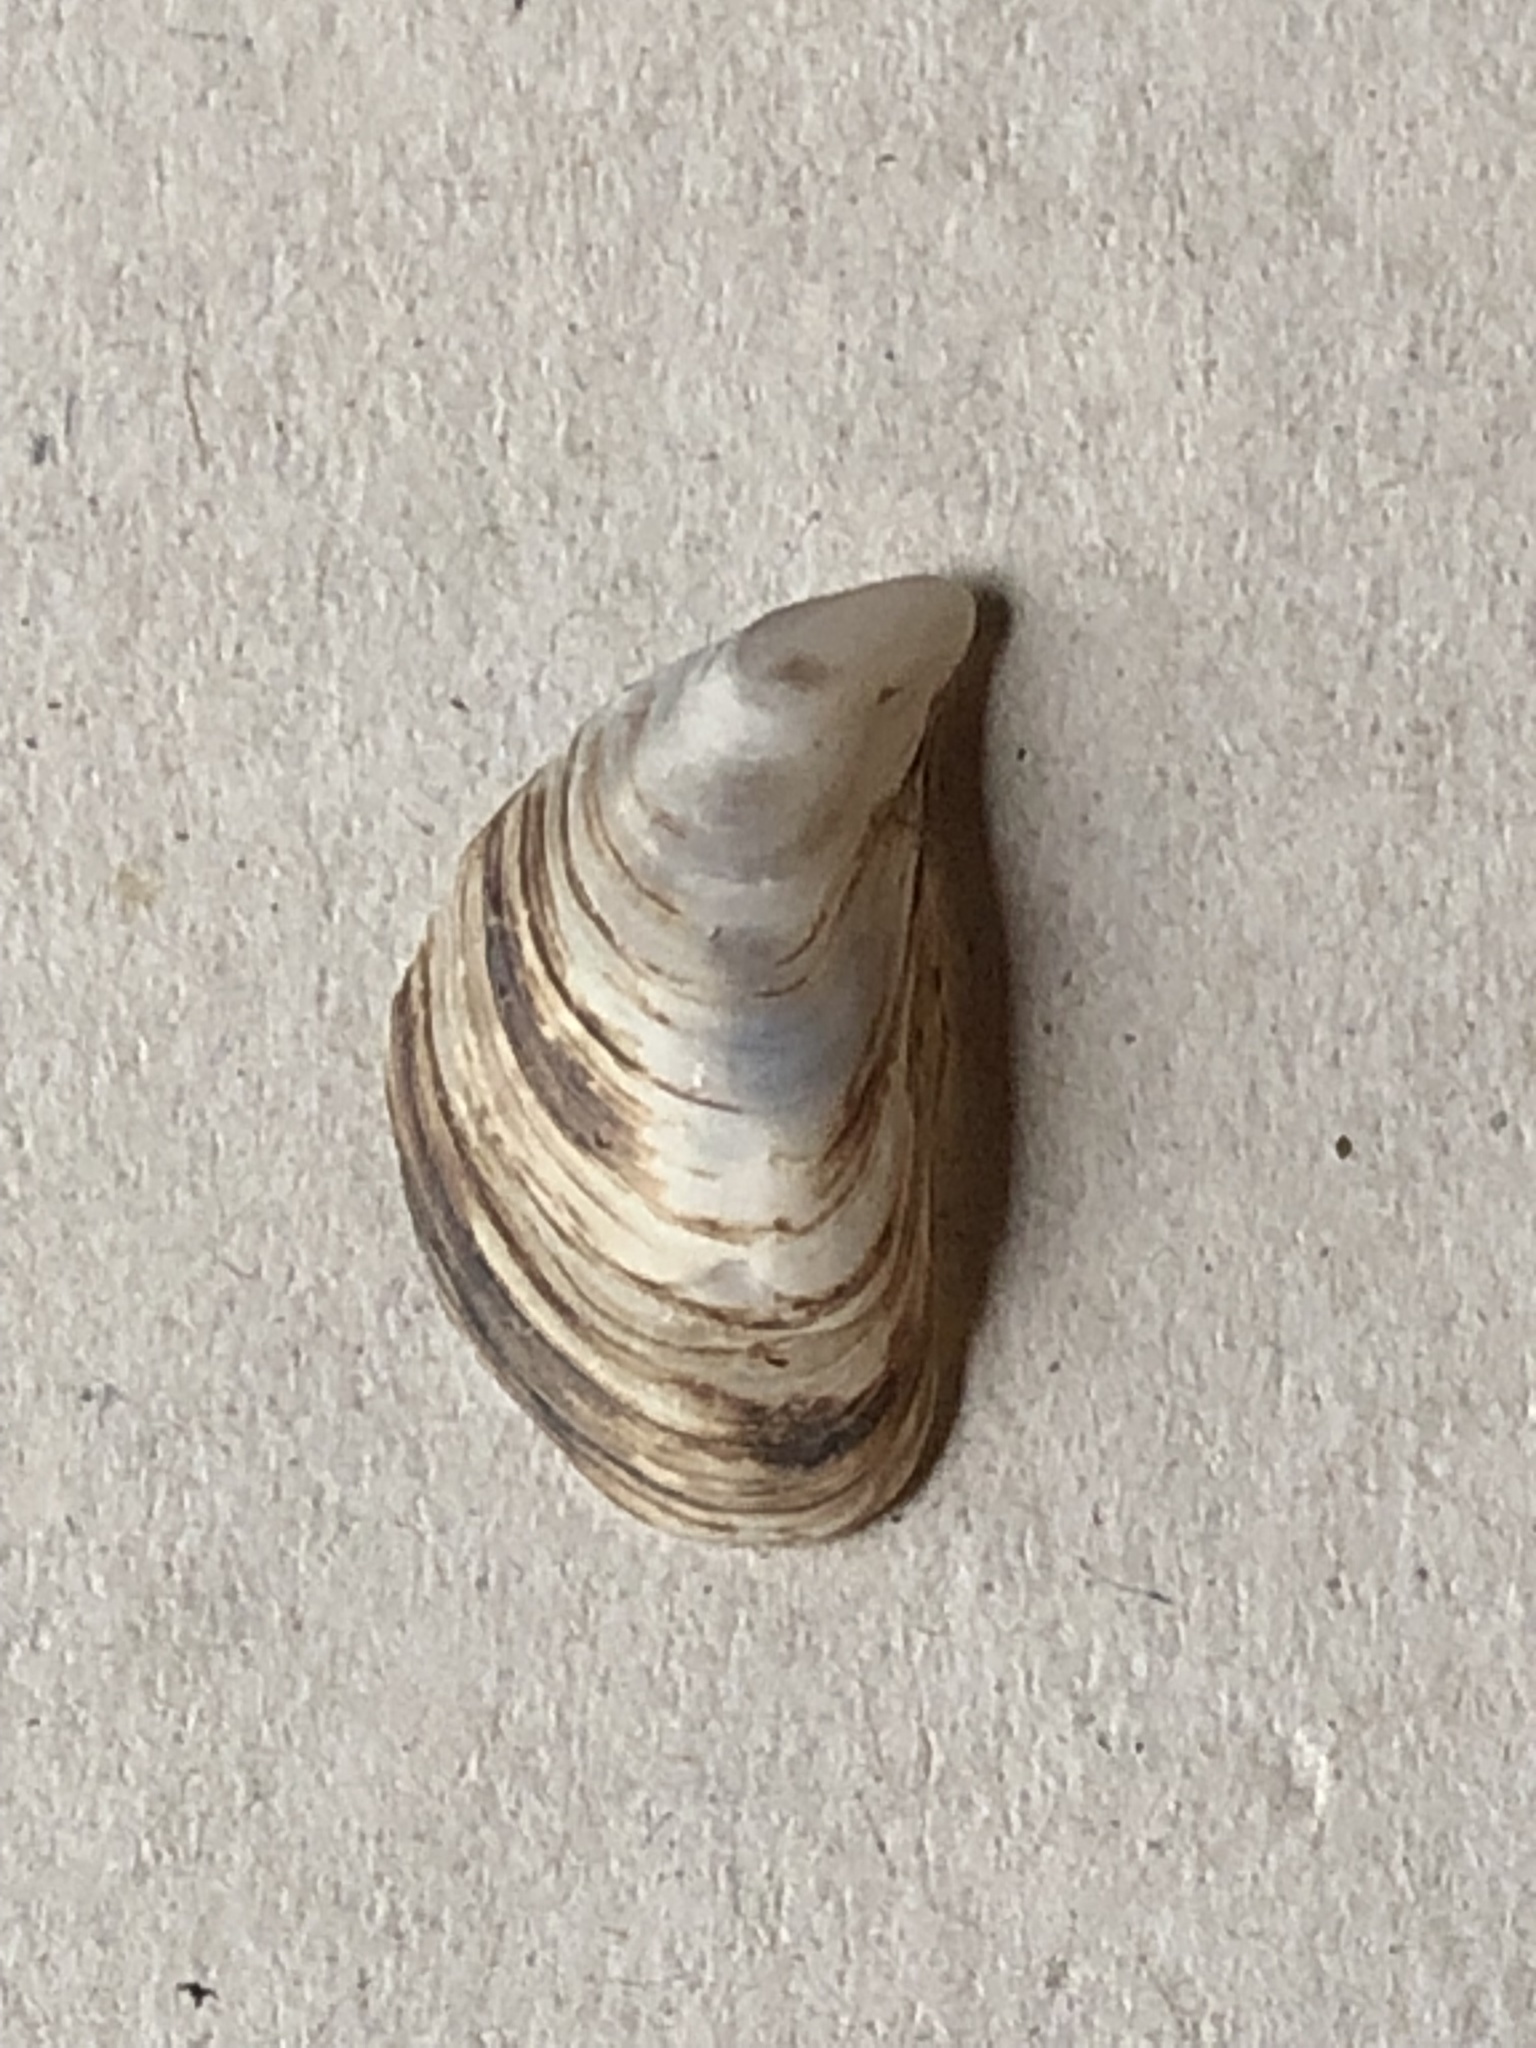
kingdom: Animalia
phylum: Mollusca
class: Bivalvia
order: Myida
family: Dreissenidae
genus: Dreissena
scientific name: Dreissena bugensis
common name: Quagga mussel
